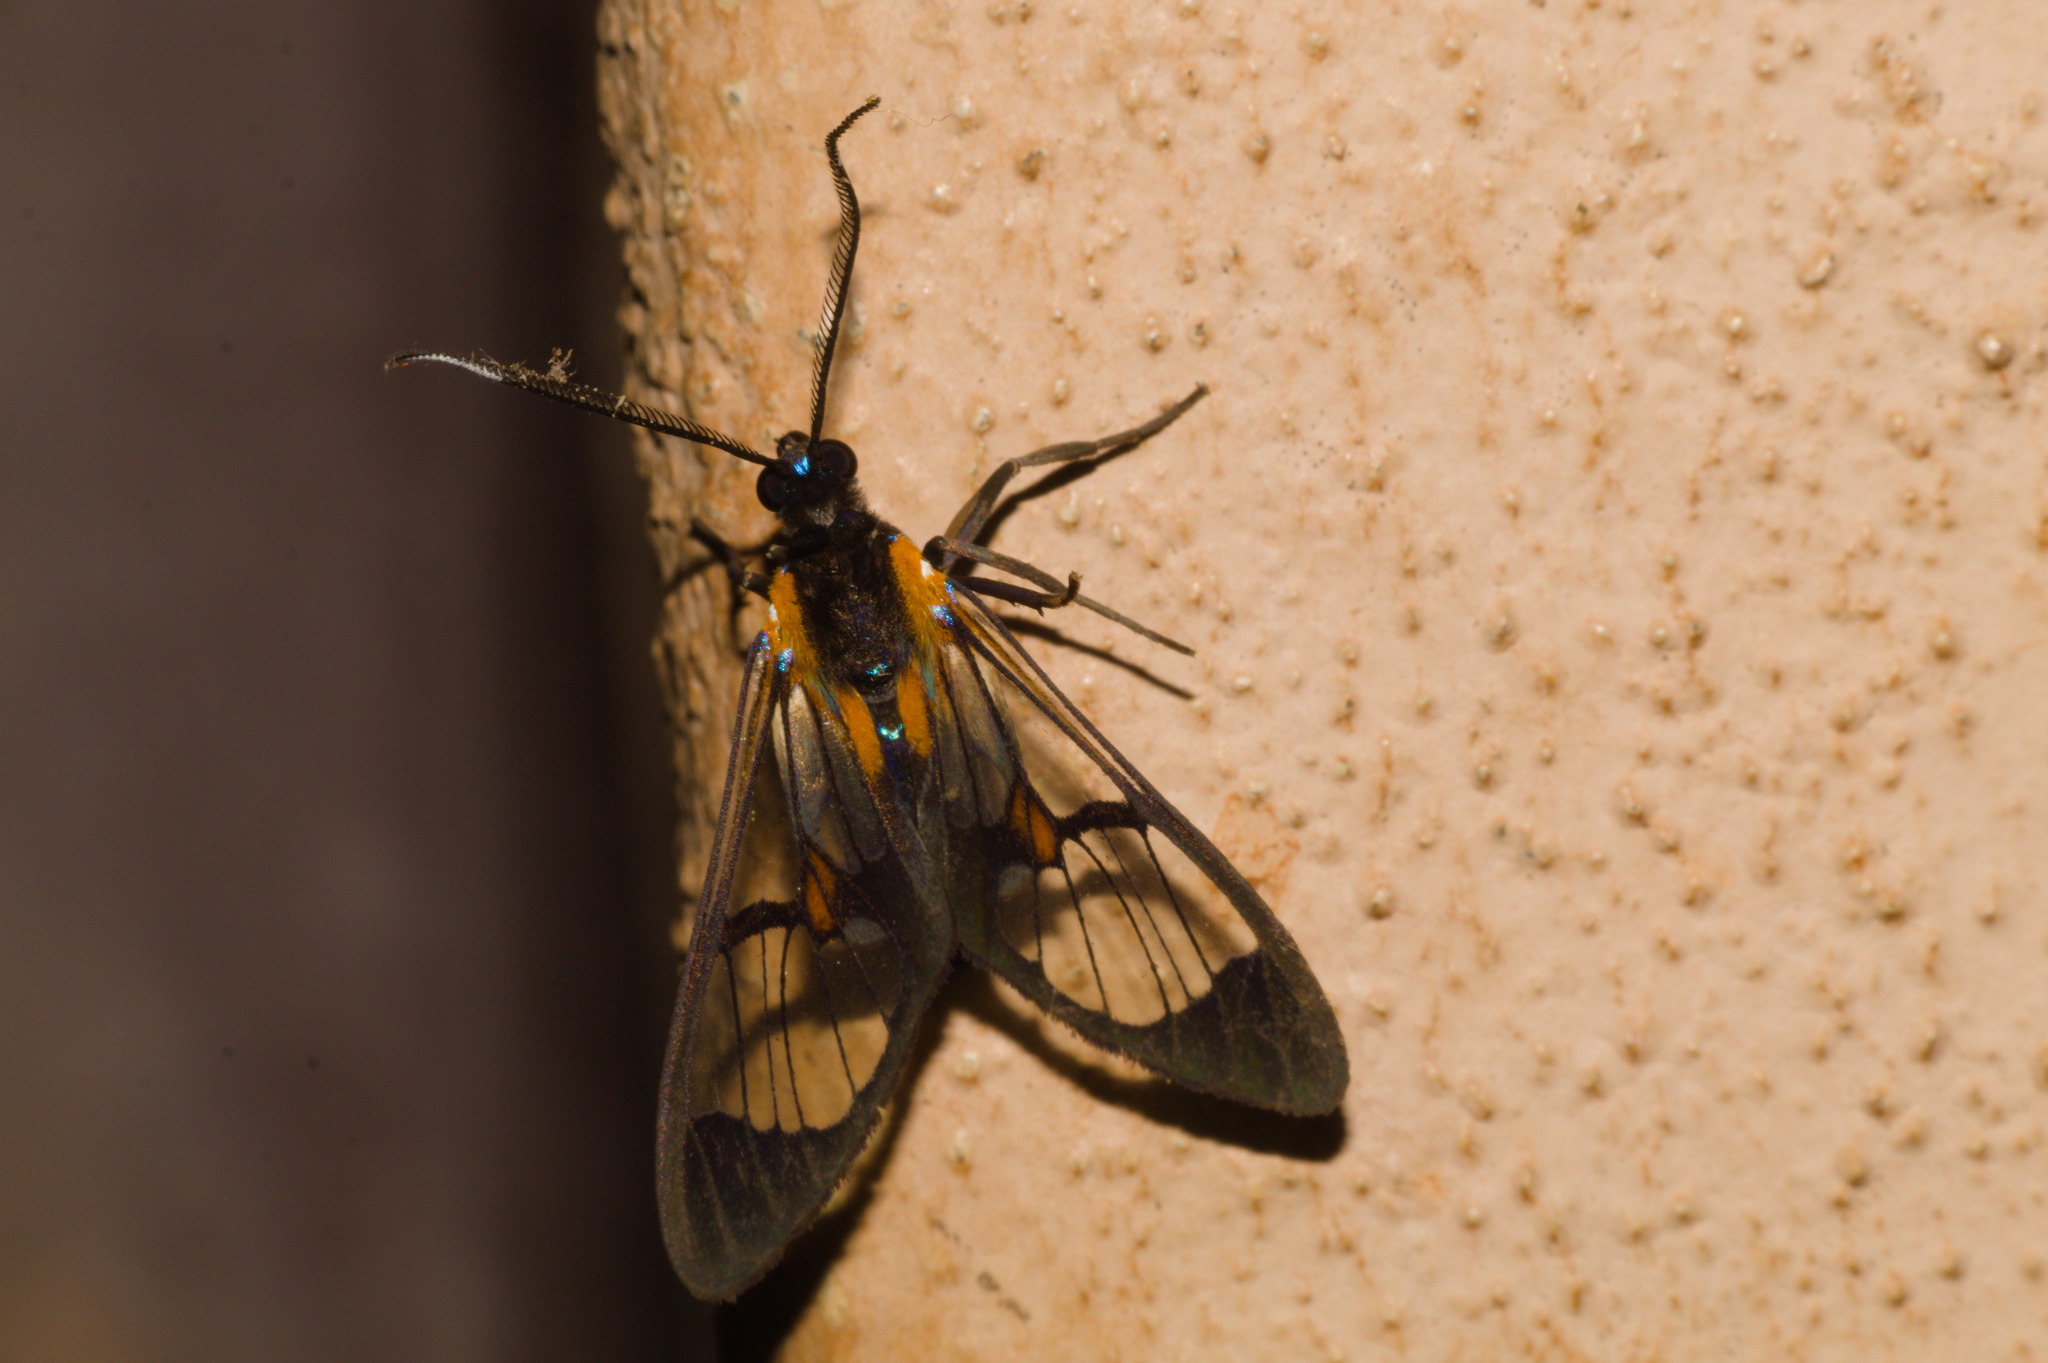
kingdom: Animalia
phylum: Arthropoda
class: Insecta
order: Lepidoptera
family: Erebidae
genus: Cosmosoma
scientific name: Cosmosoma centralis
